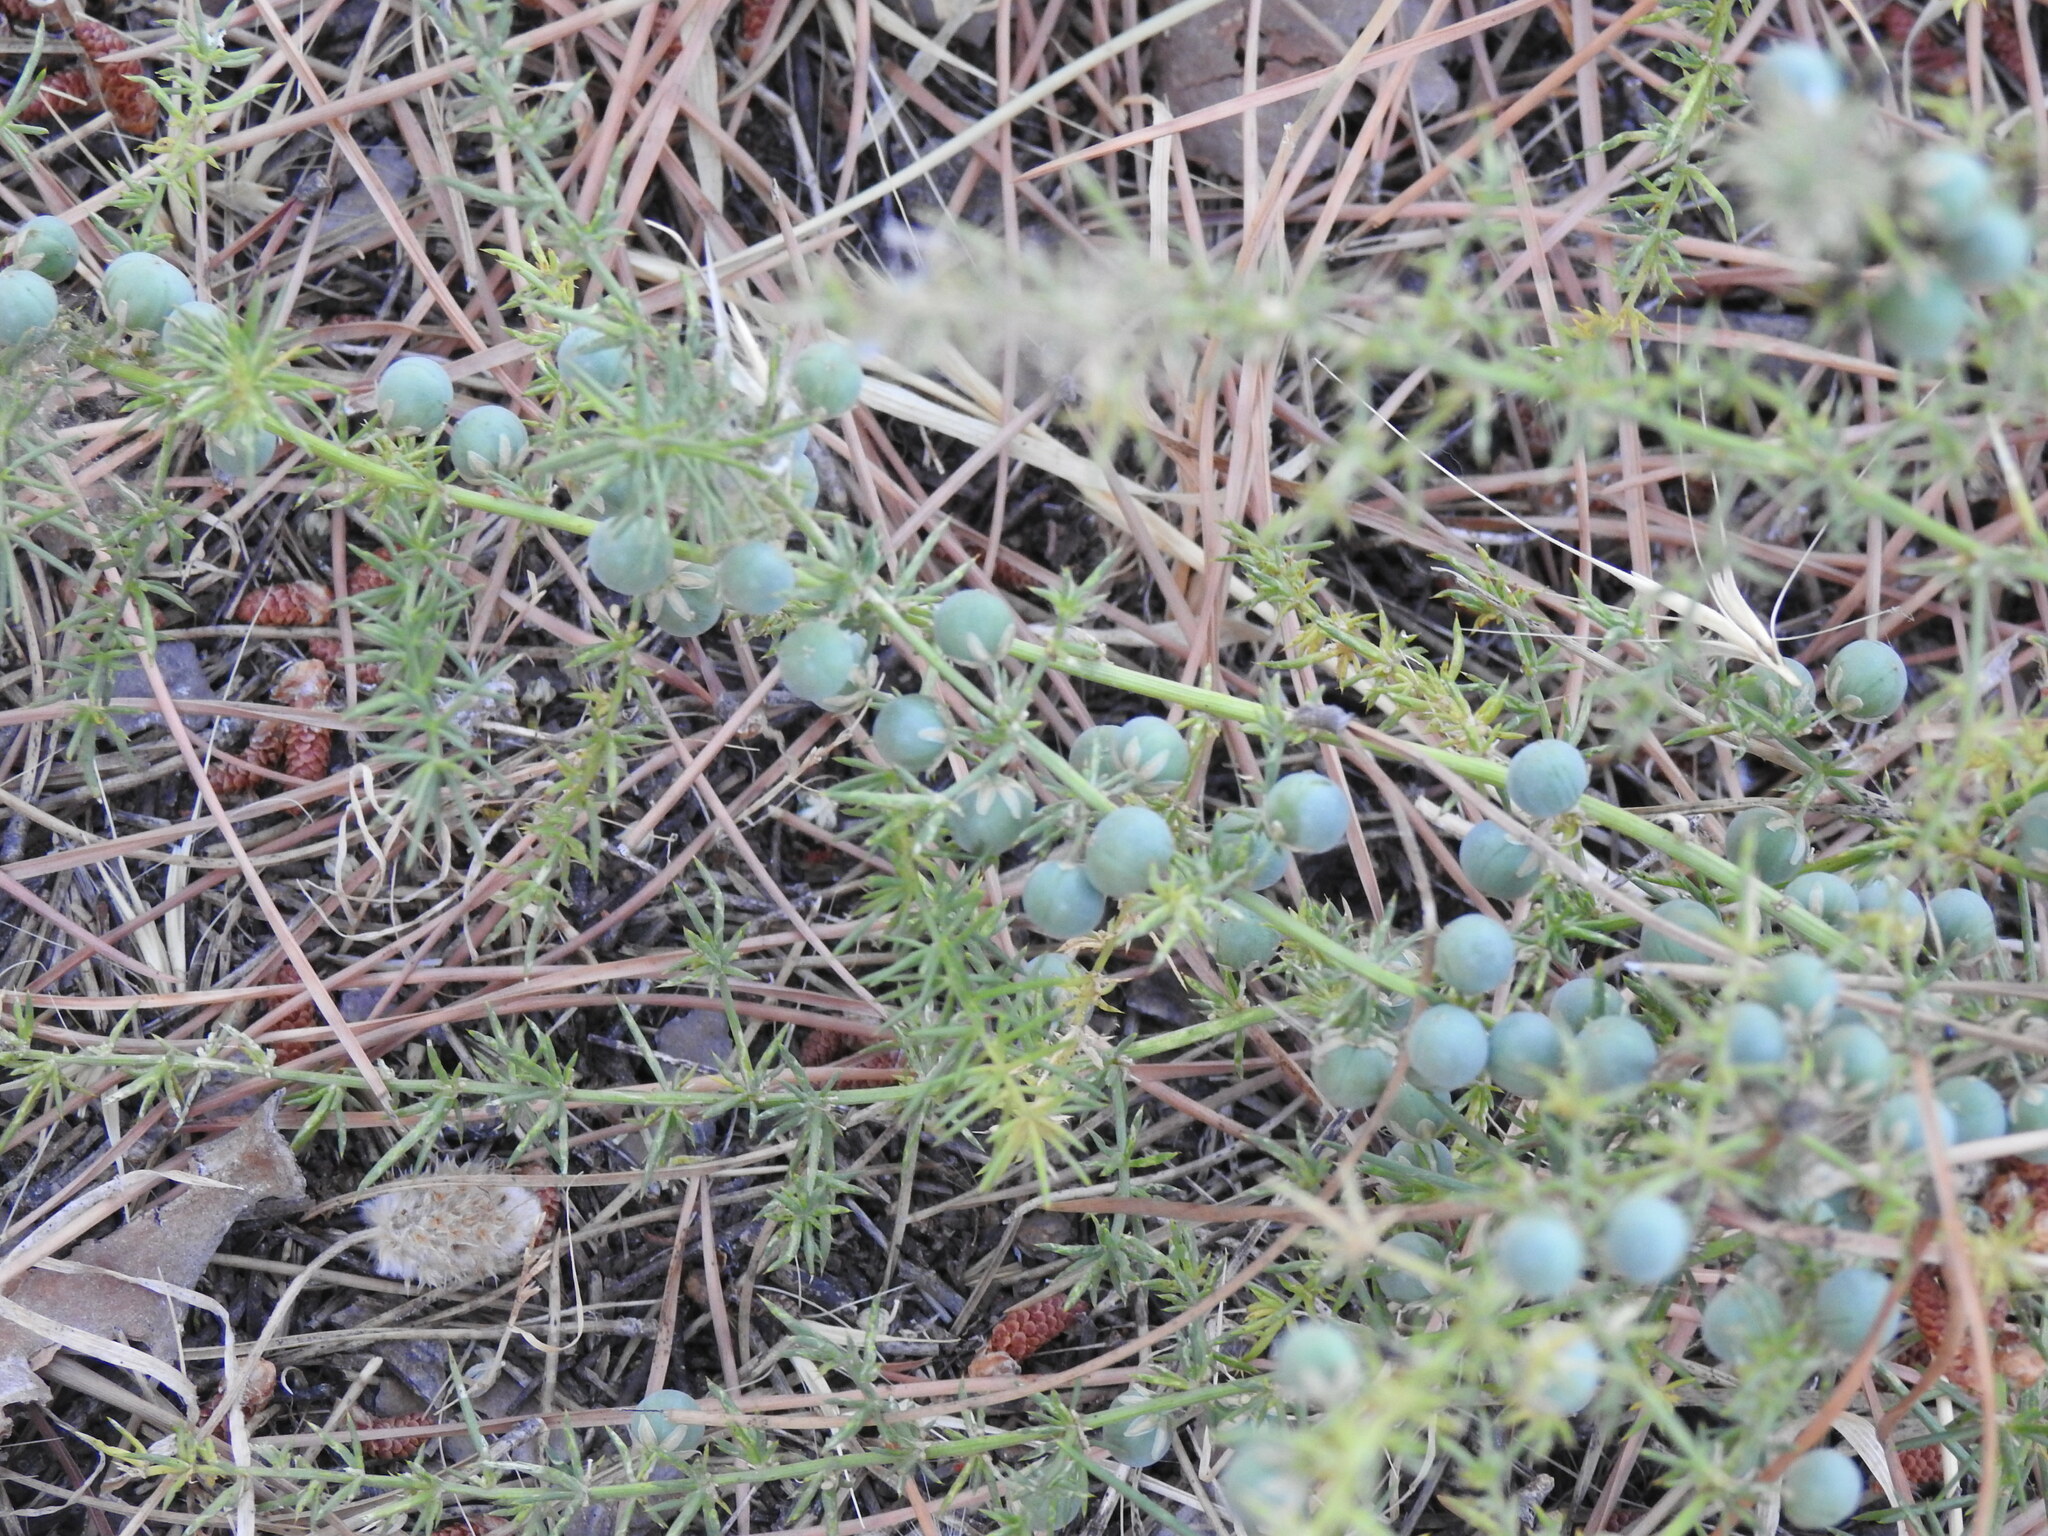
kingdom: Plantae
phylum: Tracheophyta
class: Liliopsida
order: Asparagales
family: Asparagaceae
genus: Asparagus
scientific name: Asparagus aphyllus
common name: Mediterranean asparagus
